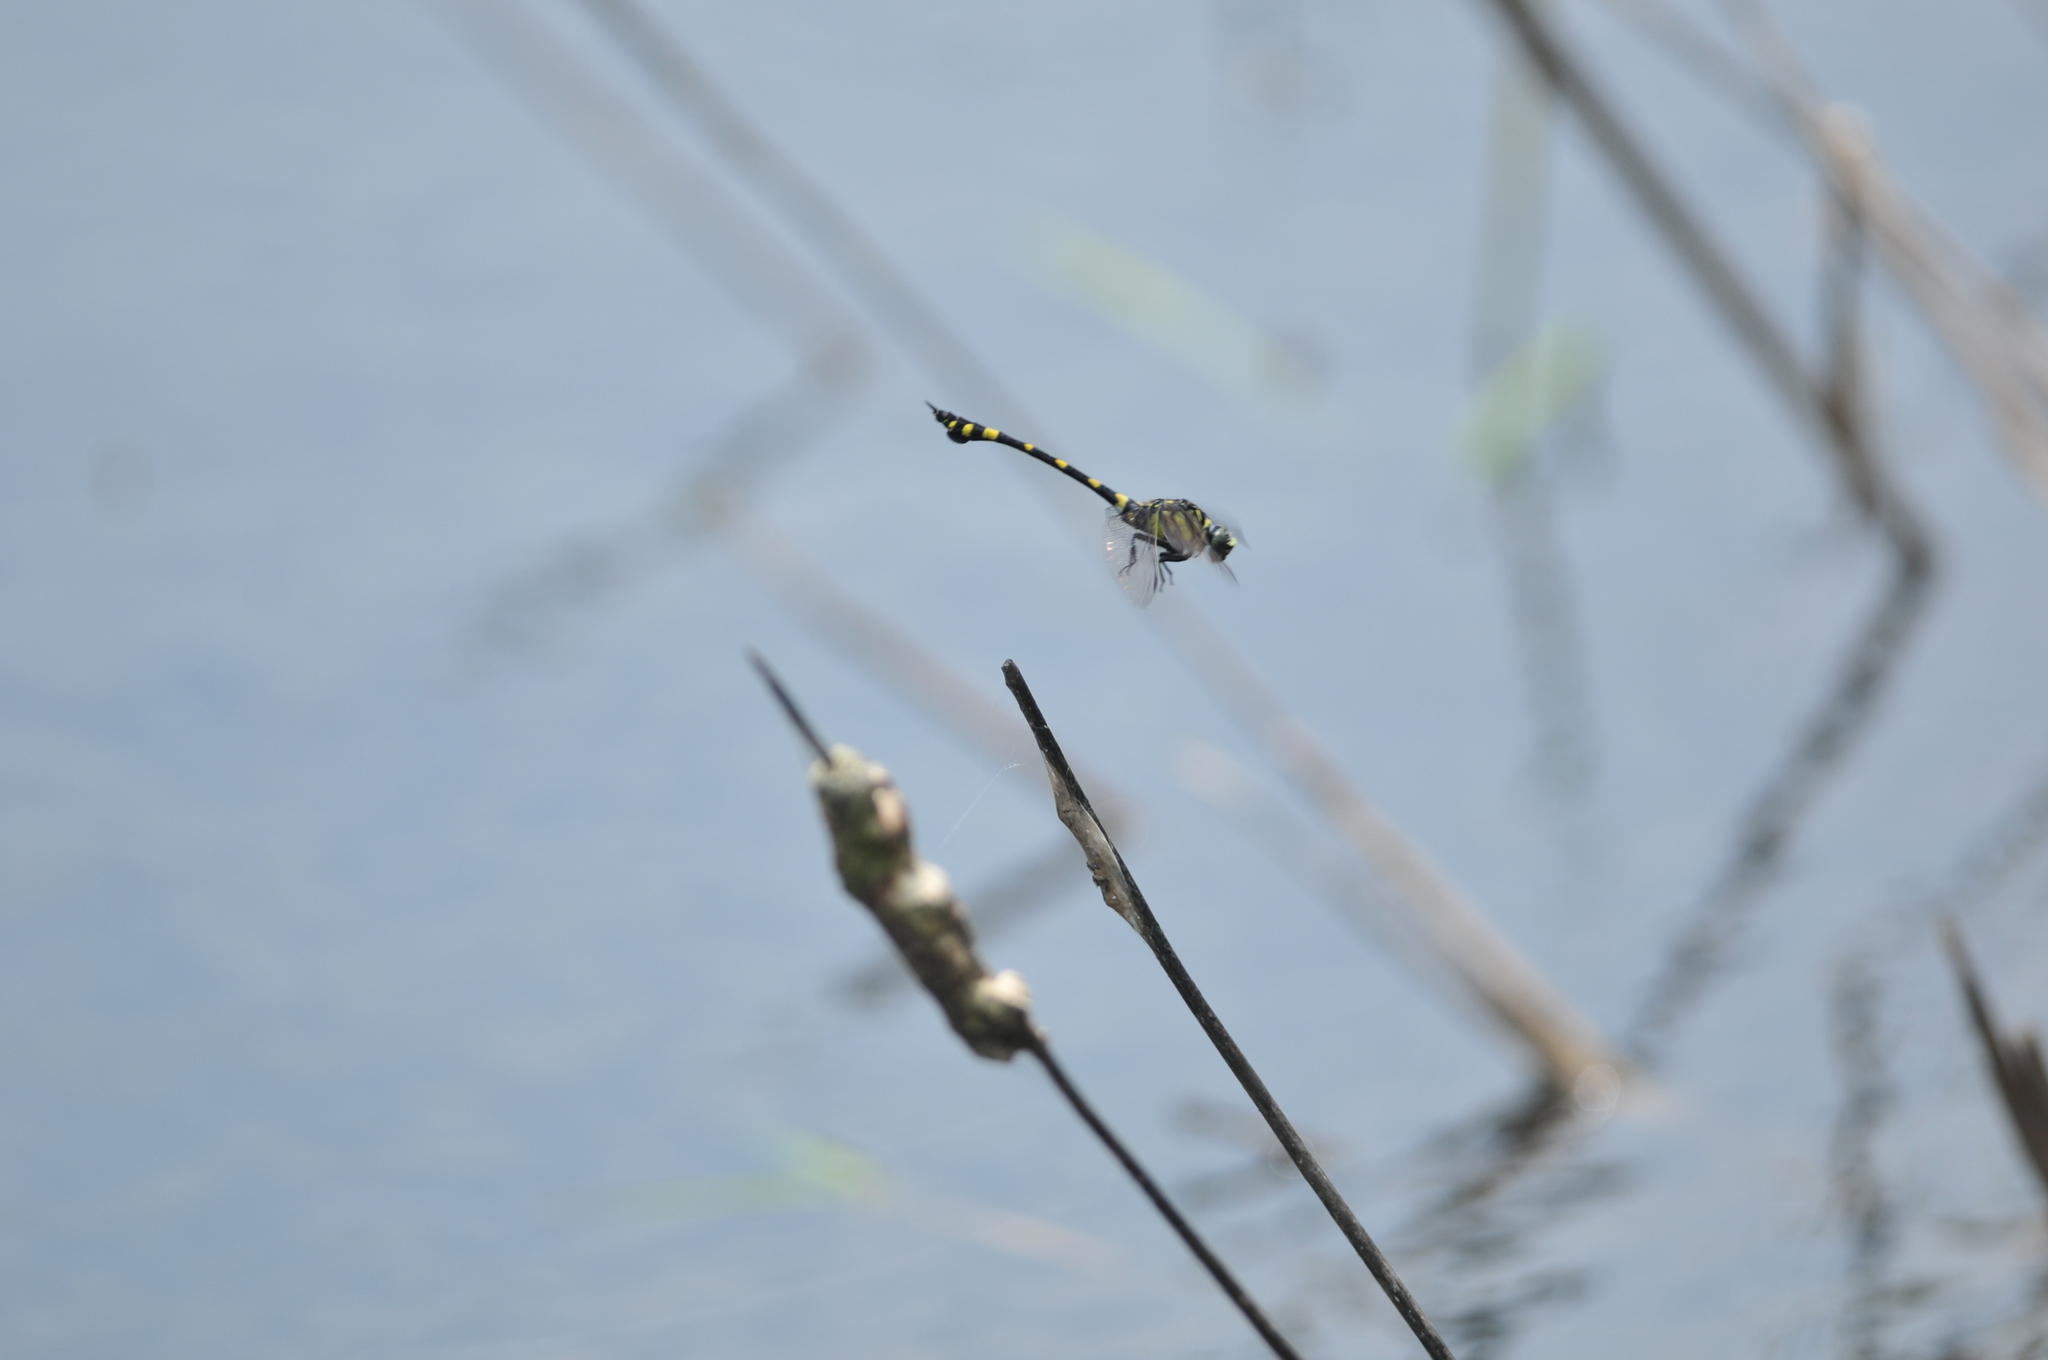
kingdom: Animalia
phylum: Arthropoda
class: Insecta
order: Odonata
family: Gomphidae
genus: Ictinogomphus
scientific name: Ictinogomphus rapax
